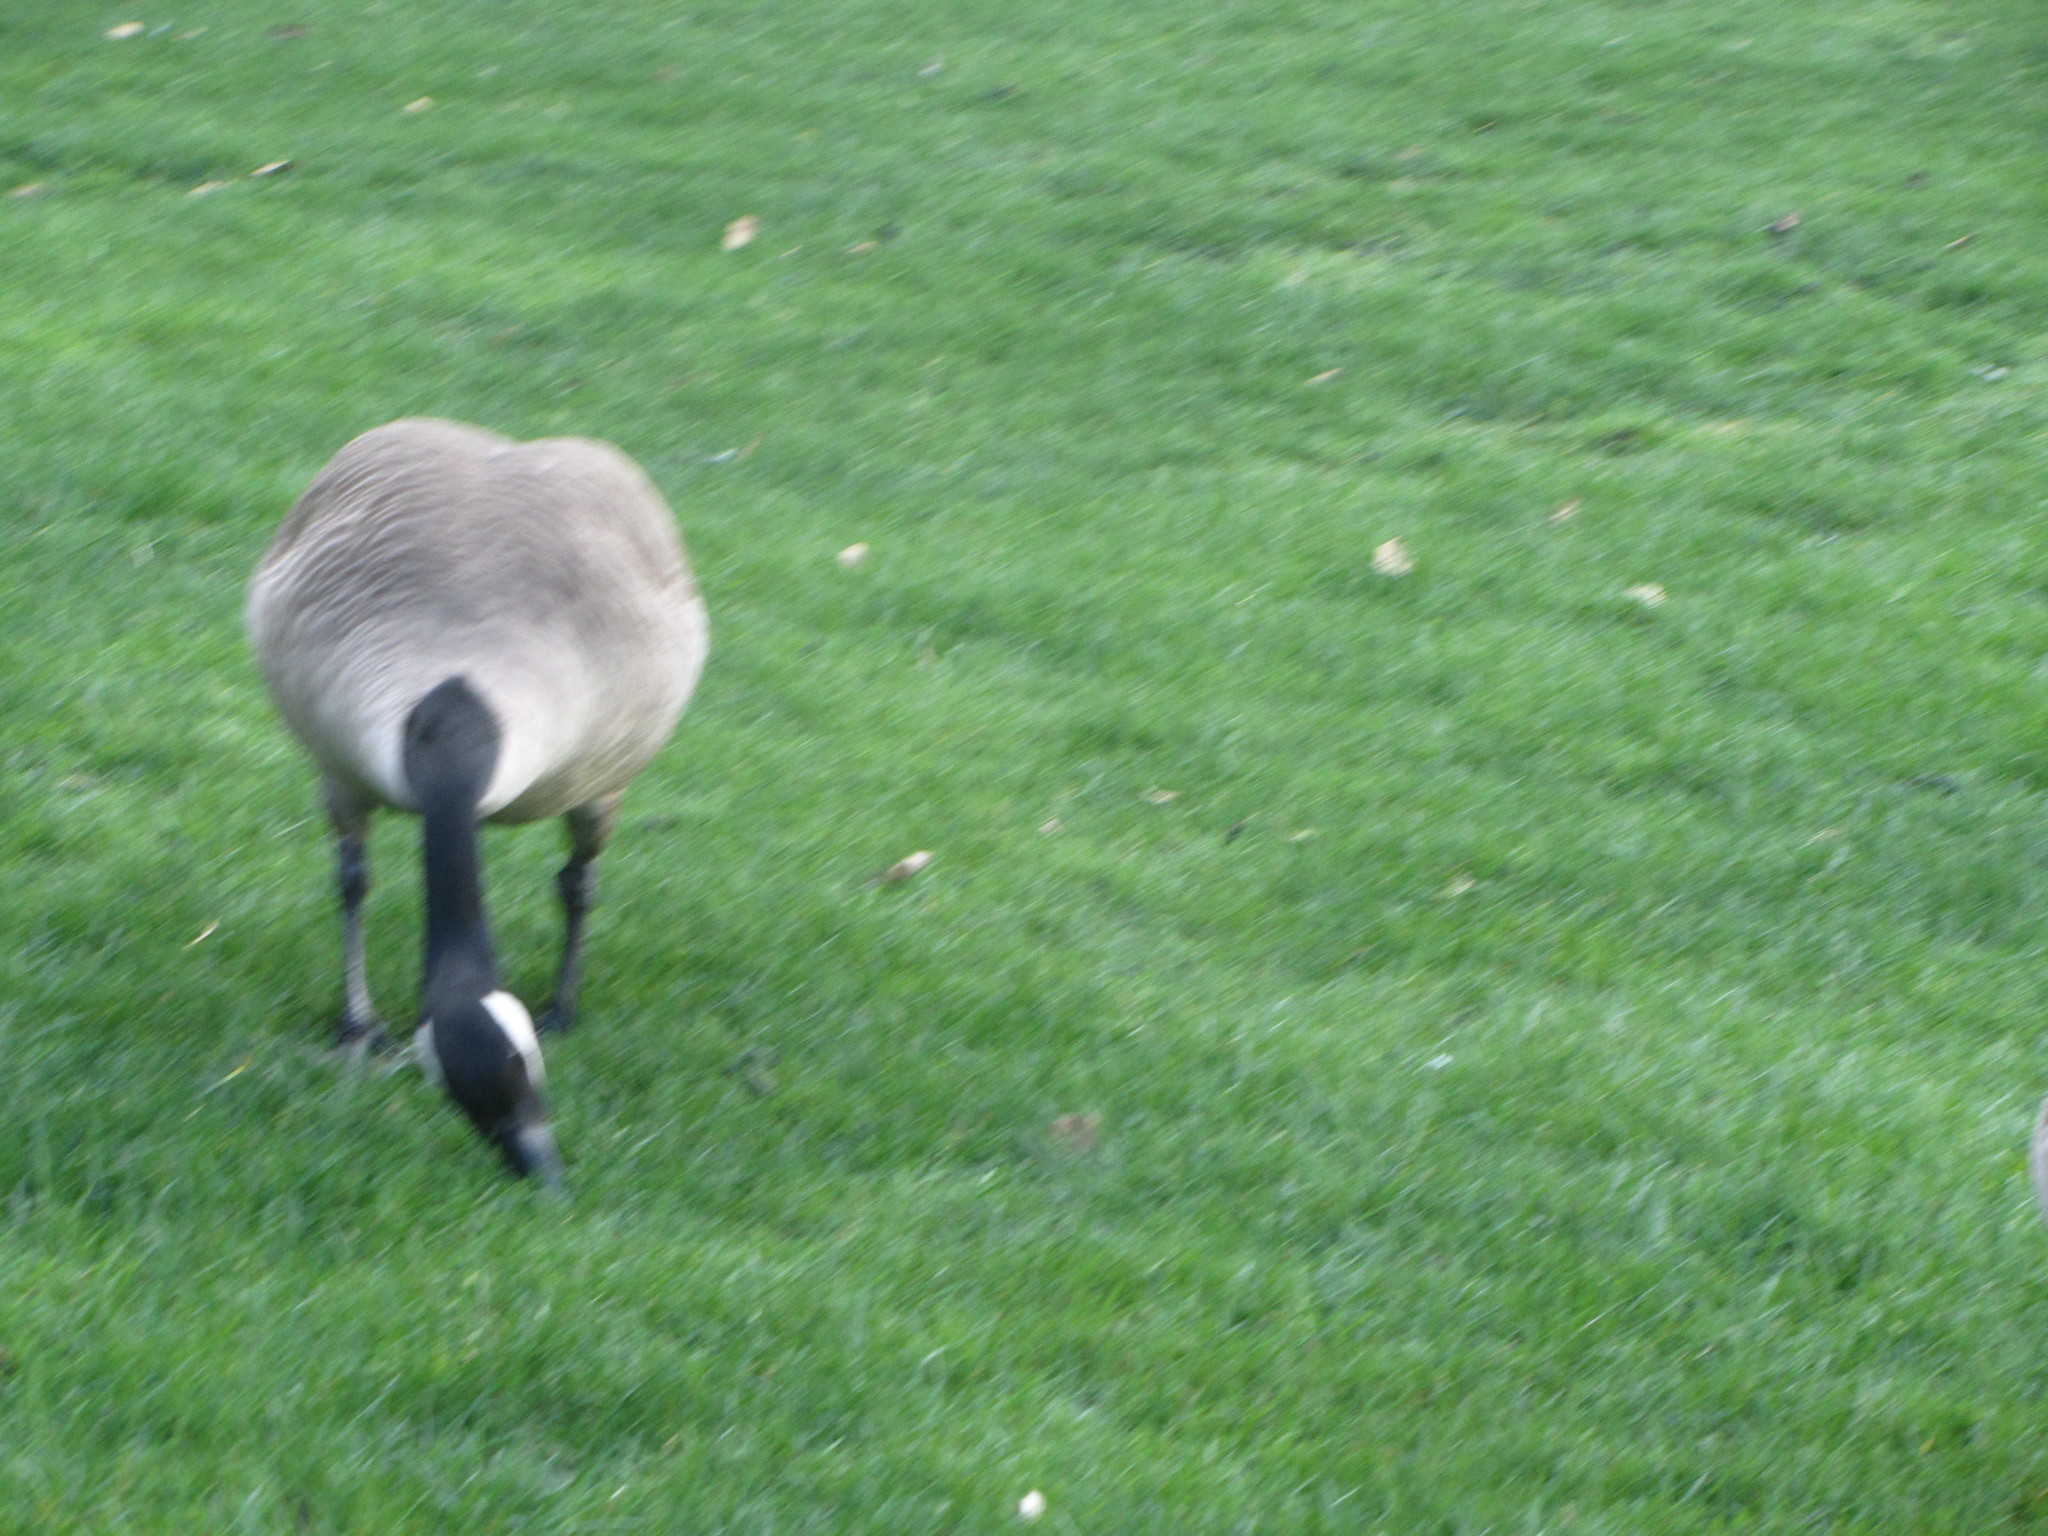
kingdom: Animalia
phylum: Chordata
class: Aves
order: Anseriformes
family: Anatidae
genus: Branta
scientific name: Branta canadensis
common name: Canada goose
